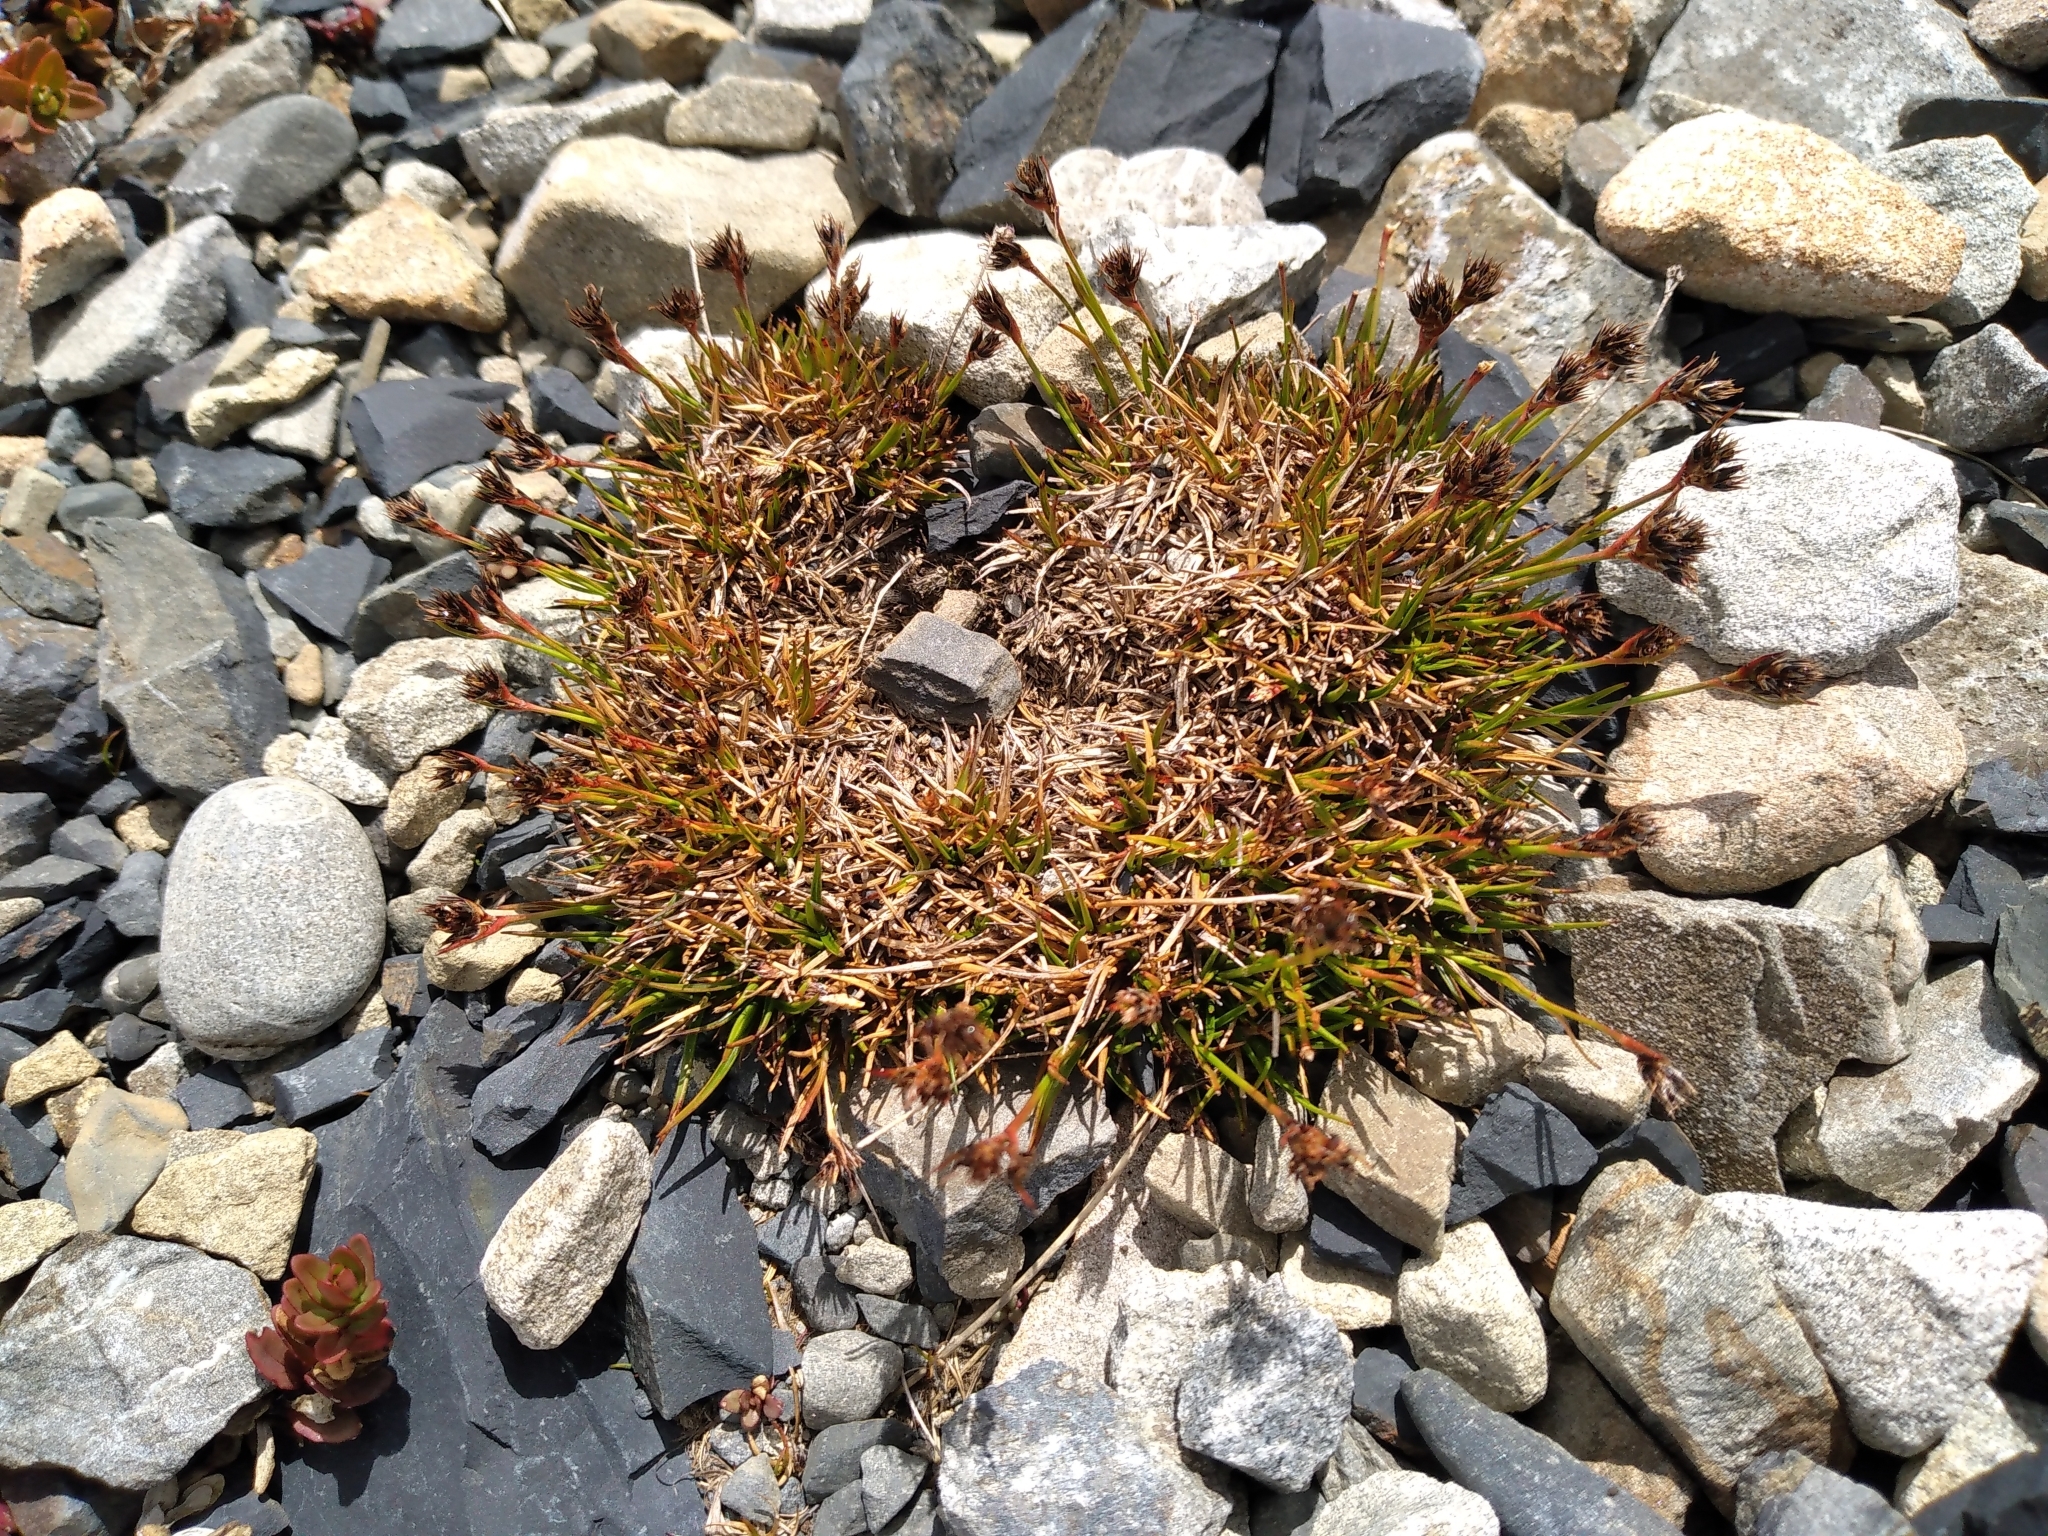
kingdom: Plantae
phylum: Tracheophyta
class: Liliopsida
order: Poales
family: Juncaceae
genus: Luzula
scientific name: Luzula pumila
